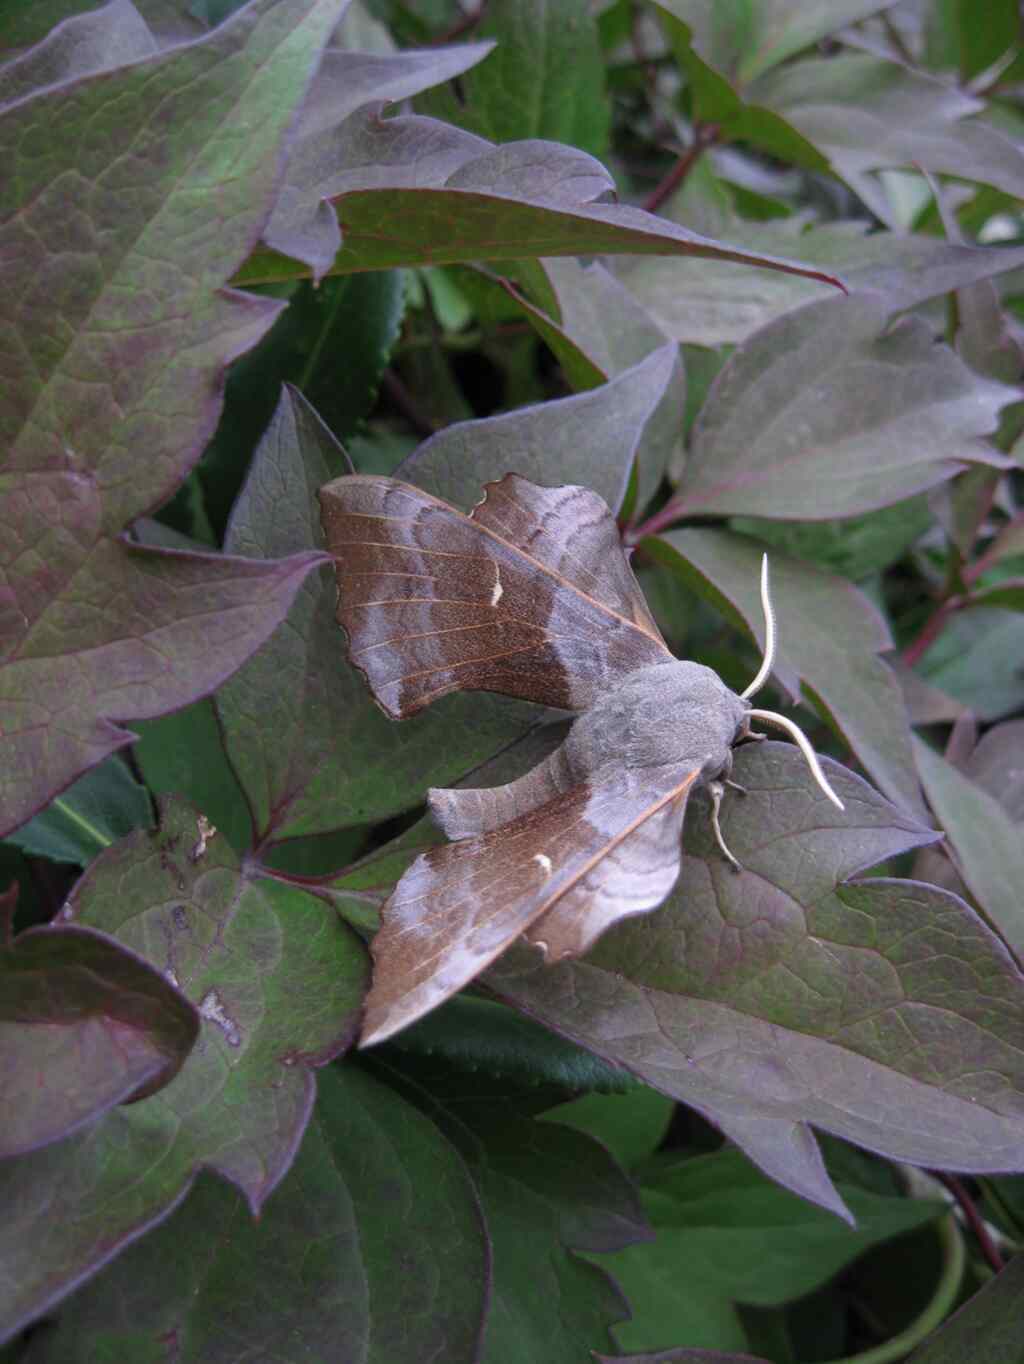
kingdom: Animalia
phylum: Arthropoda
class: Insecta
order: Lepidoptera
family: Sphingidae
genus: Laothoe
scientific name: Laothoe populi
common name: Poplar hawk-moth
